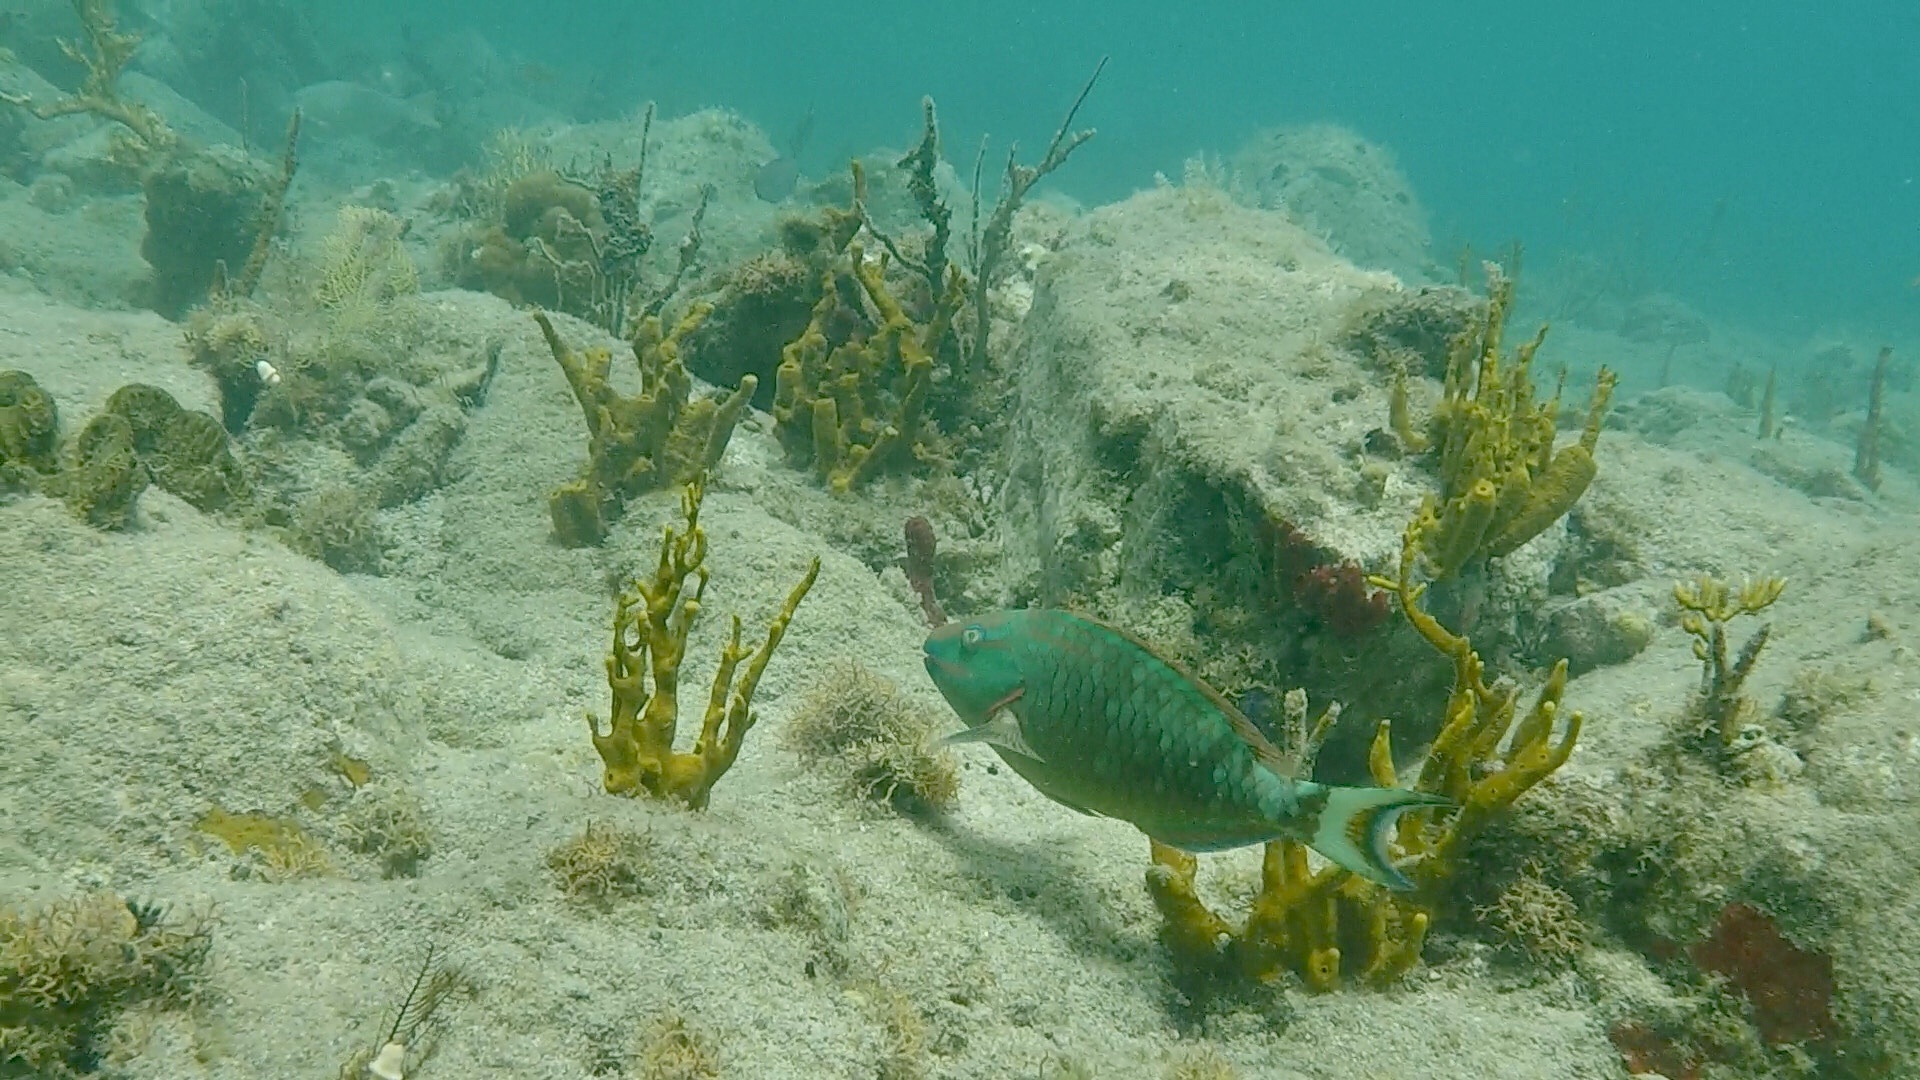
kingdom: Animalia
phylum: Chordata
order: Perciformes
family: Scaridae
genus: Sparisoma
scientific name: Sparisoma viride
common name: Stoplight parrotfish
